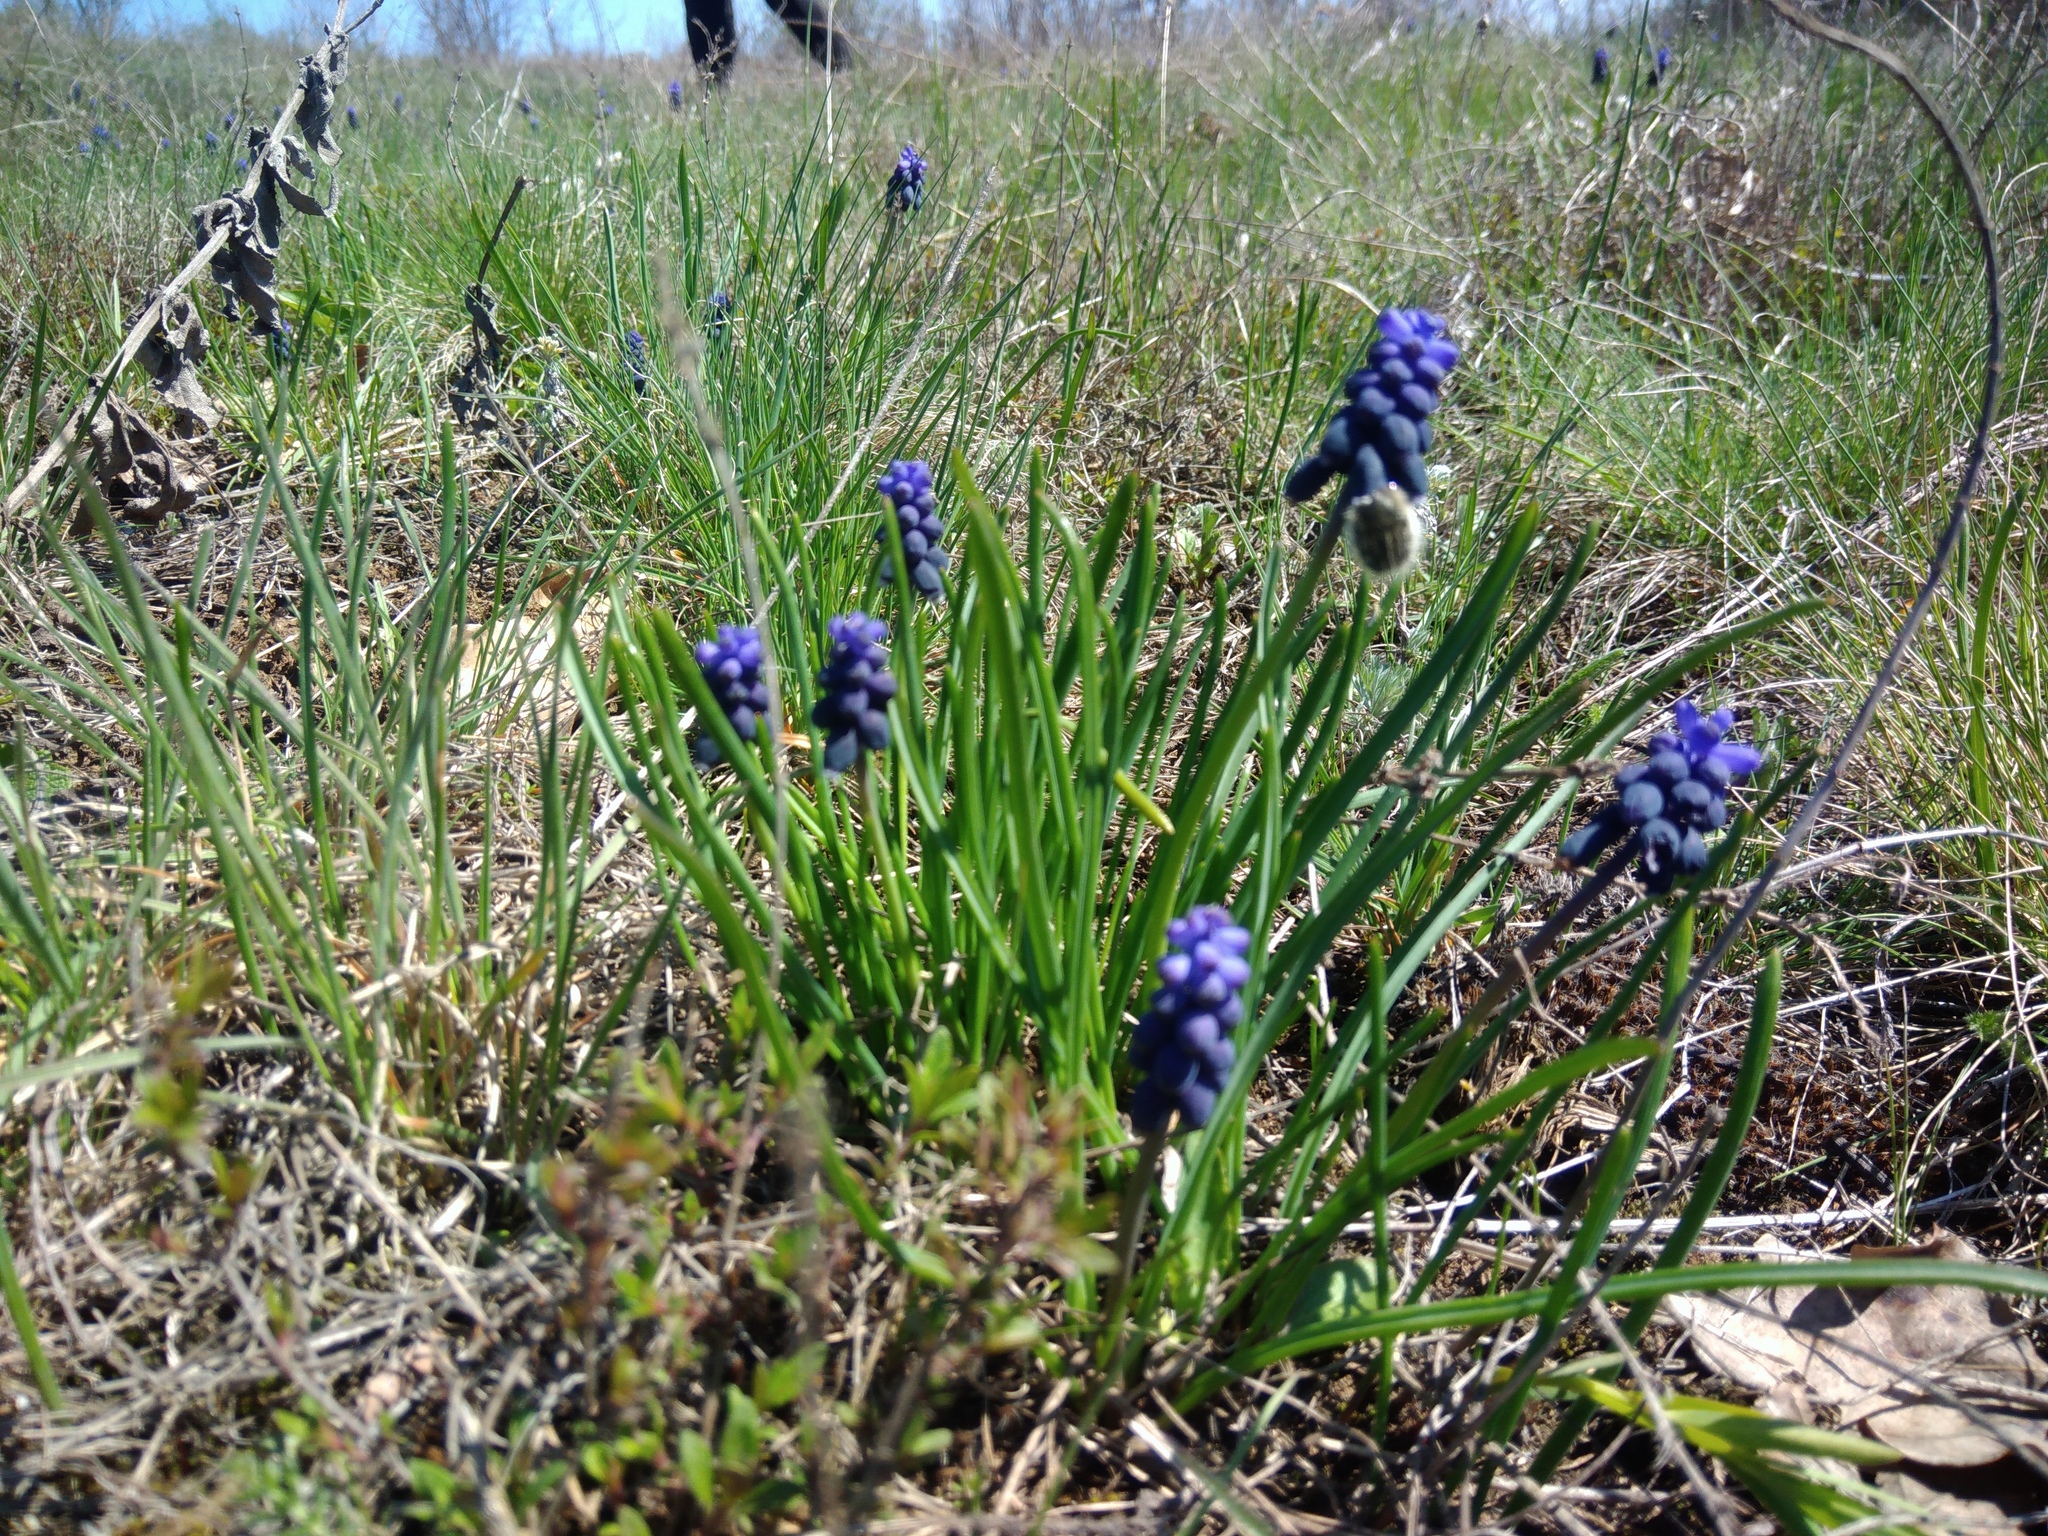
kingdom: Plantae
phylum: Tracheophyta
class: Liliopsida
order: Asparagales
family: Asparagaceae
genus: Muscari
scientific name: Muscari neglectum
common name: Grape-hyacinth
